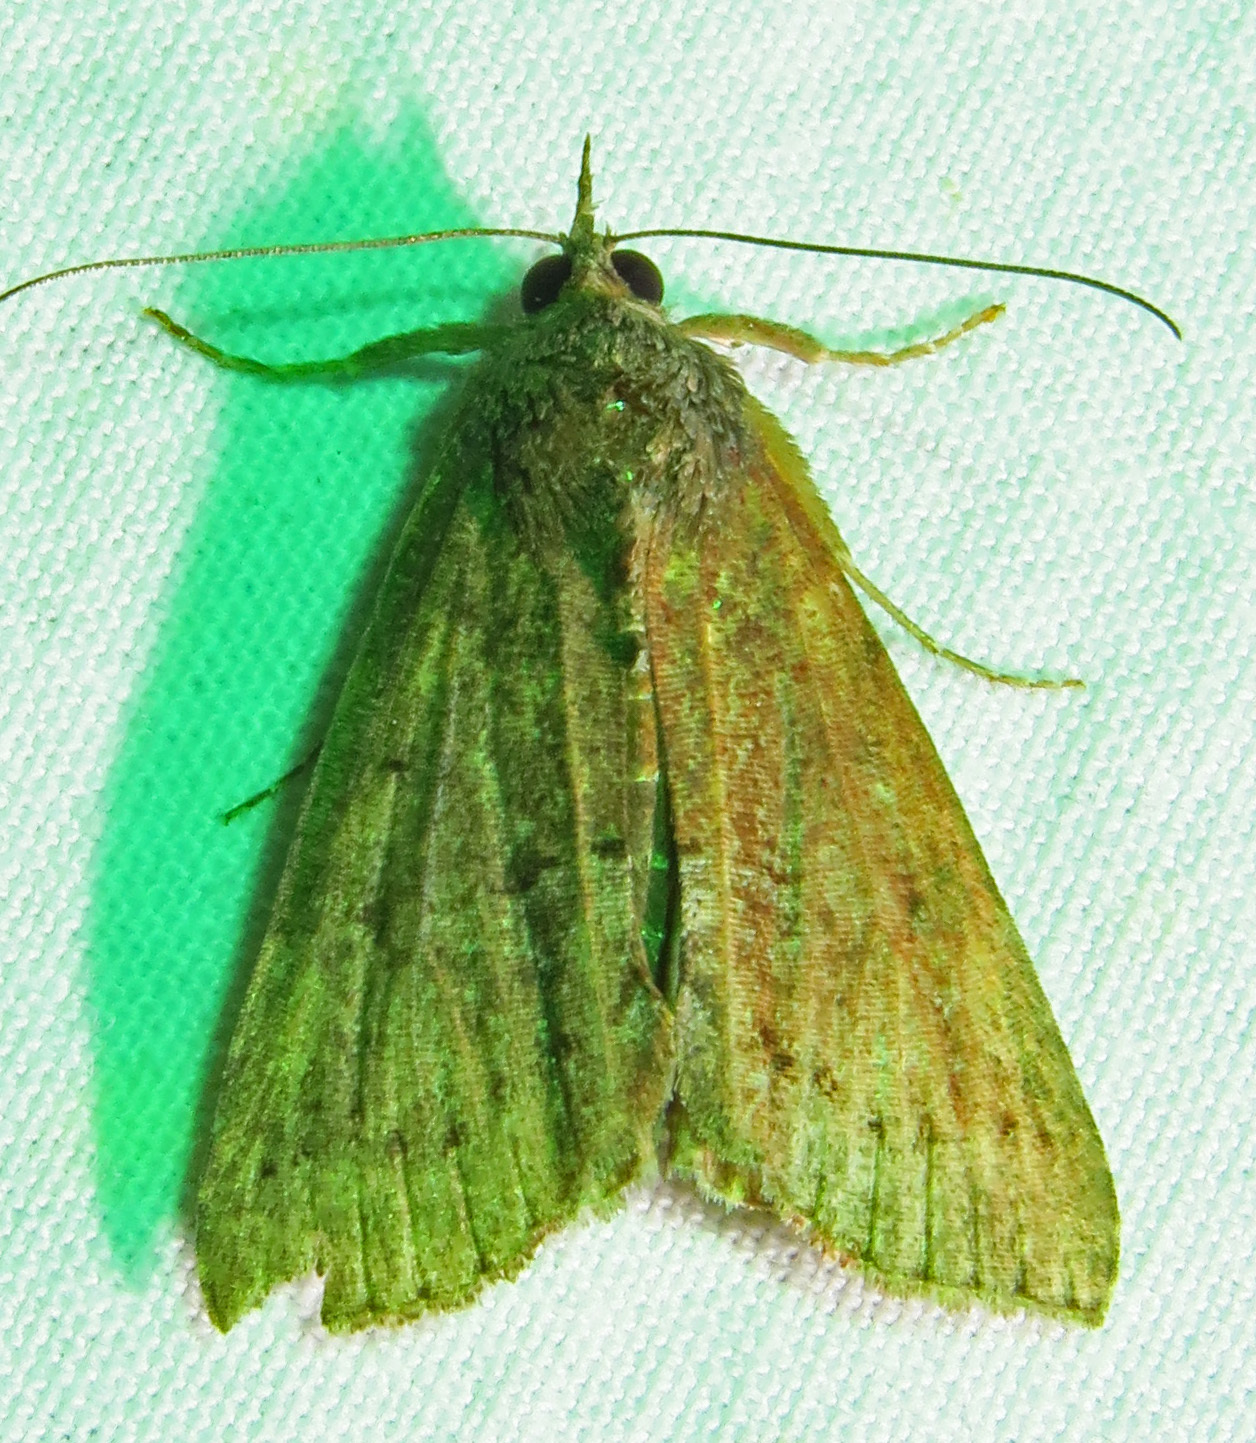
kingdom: Animalia
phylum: Arthropoda
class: Insecta
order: Lepidoptera
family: Erebidae
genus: Hypena
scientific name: Hypena scabra
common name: Green cloverworm
